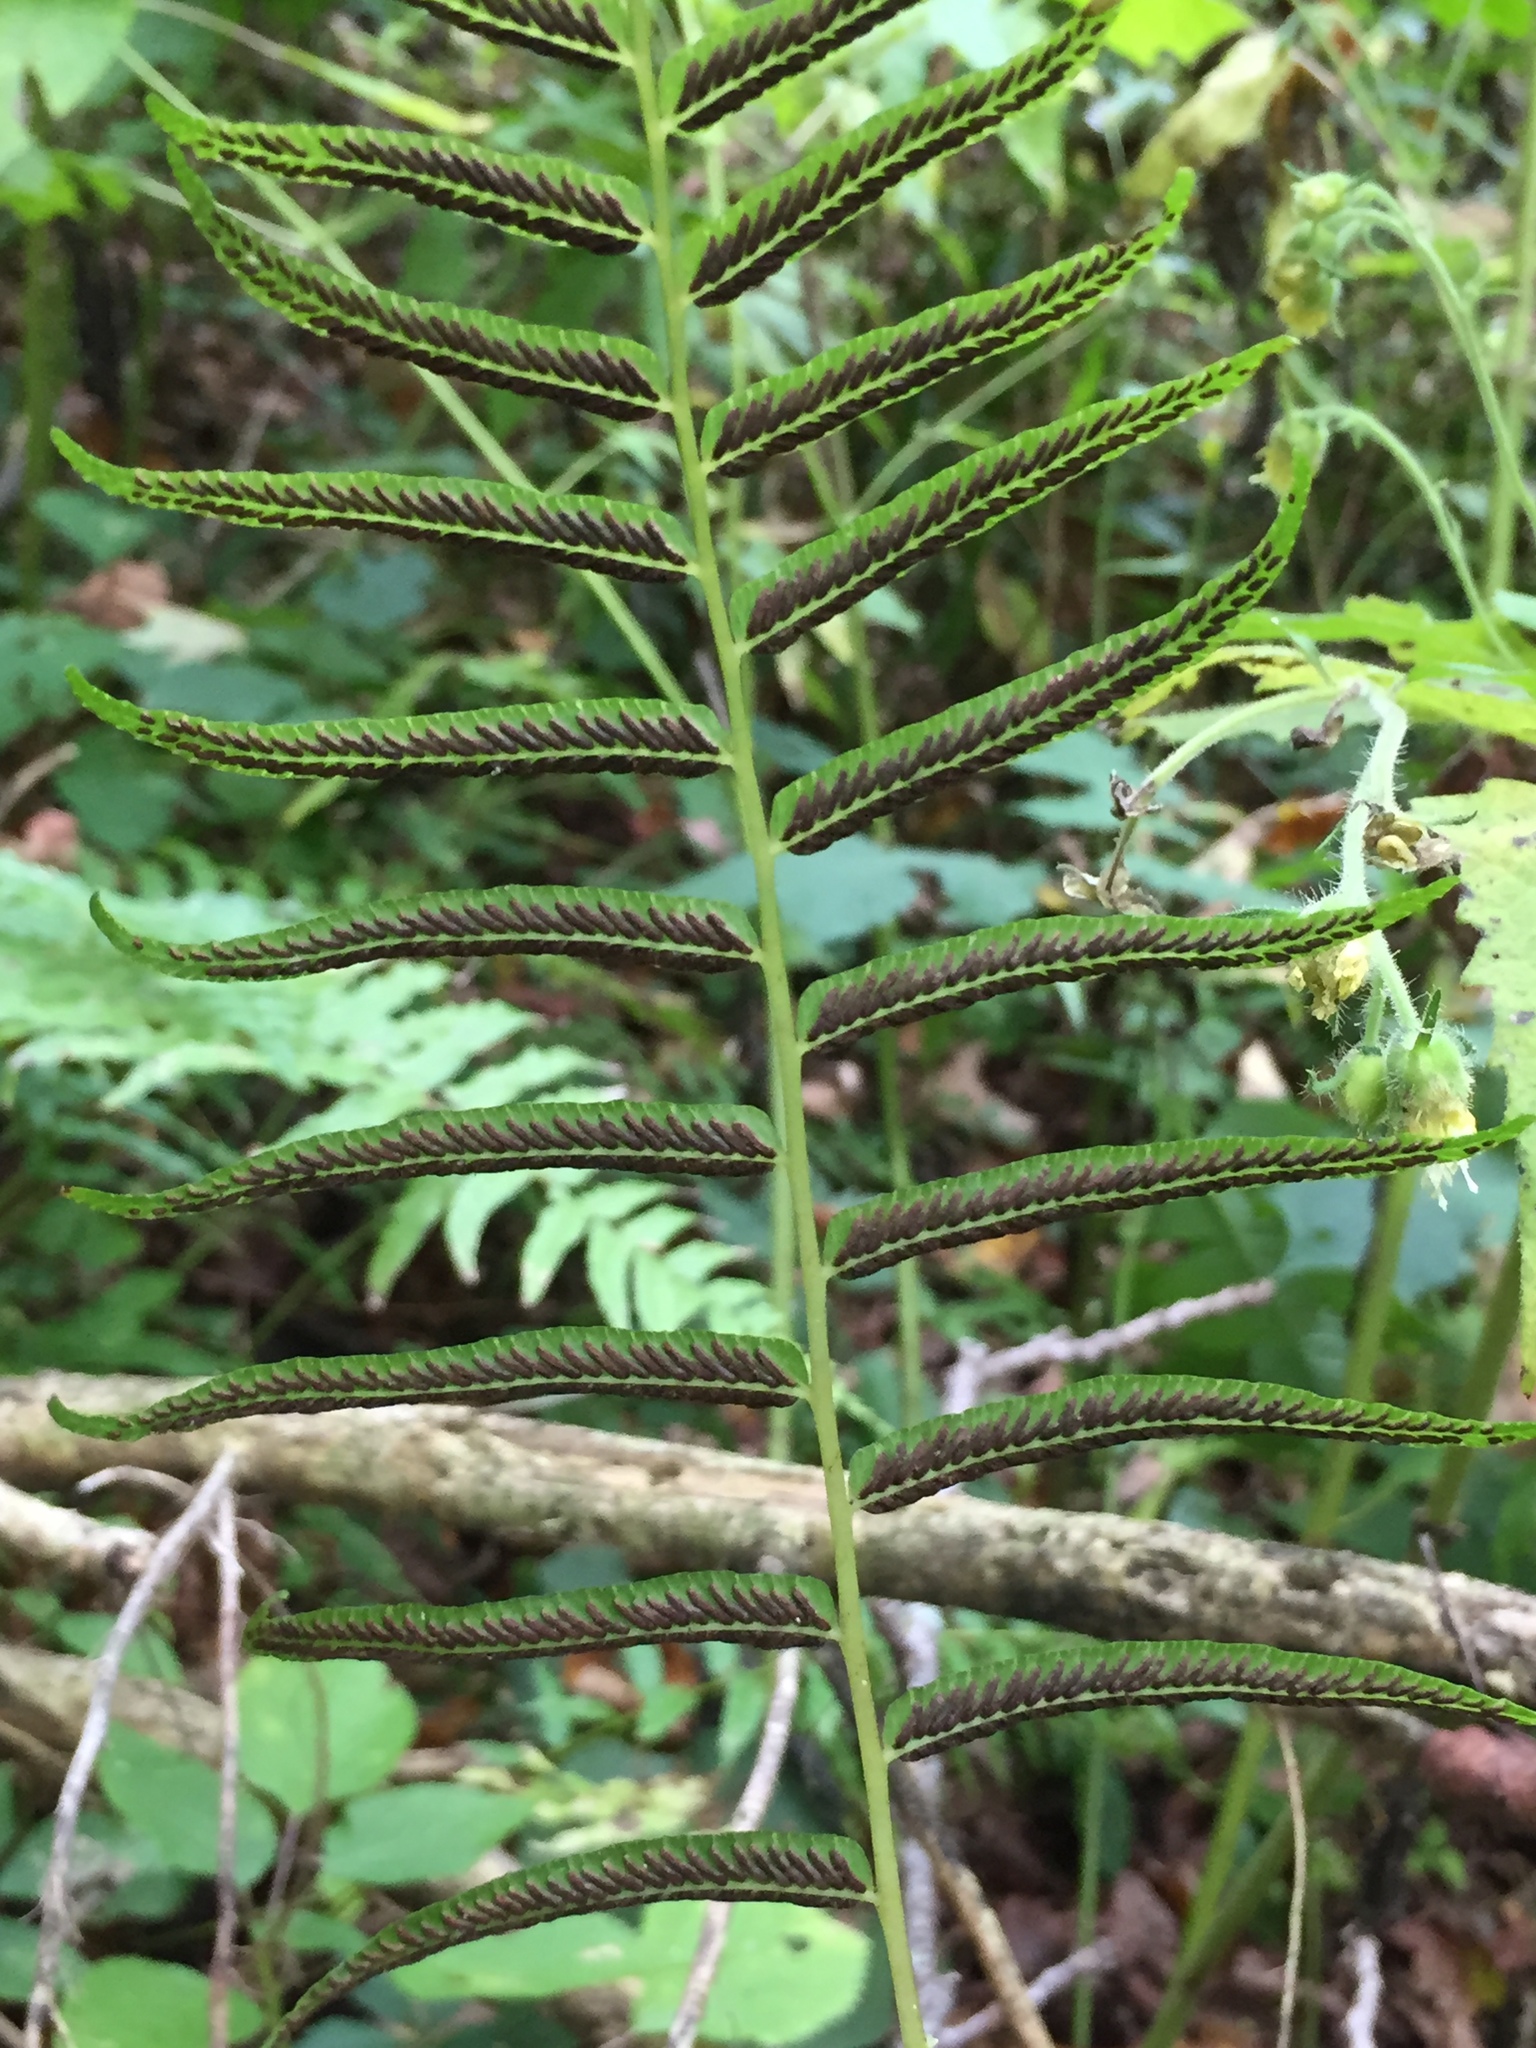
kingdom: Plantae
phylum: Tracheophyta
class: Polypodiopsida
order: Polypodiales
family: Diplaziopsidaceae
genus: Homalosorus
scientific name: Homalosorus pycnocarpos
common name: Glade fern
